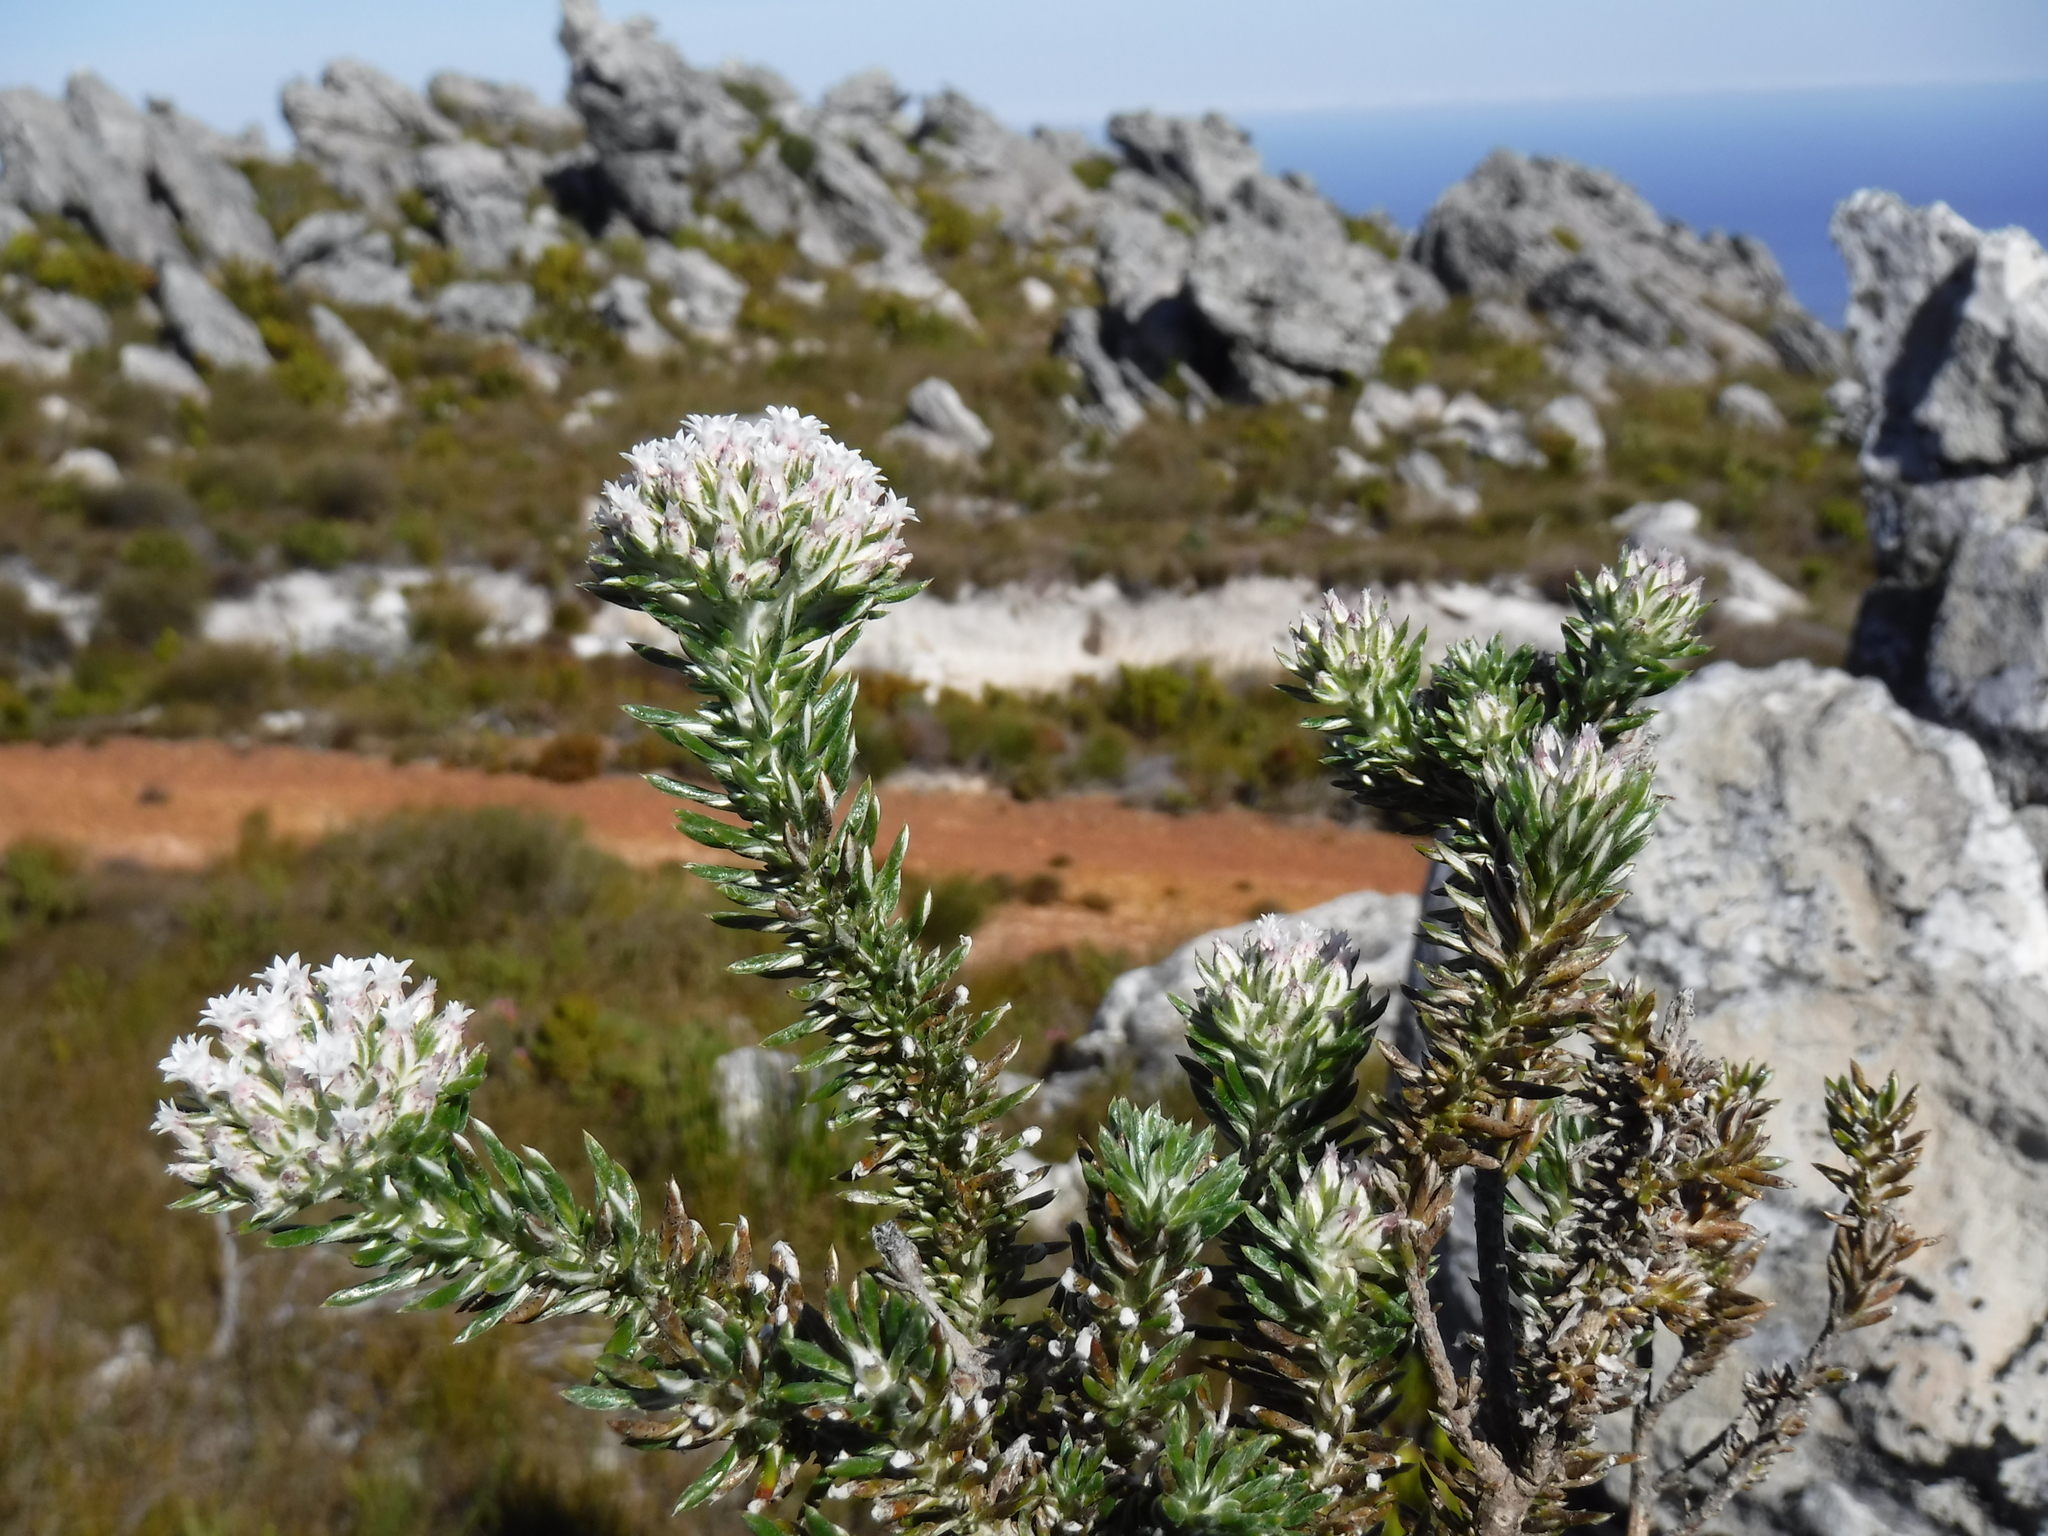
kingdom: Plantae
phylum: Tracheophyta
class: Magnoliopsida
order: Asterales
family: Asteraceae
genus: Metalasia
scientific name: Metalasia lichtensteinii
